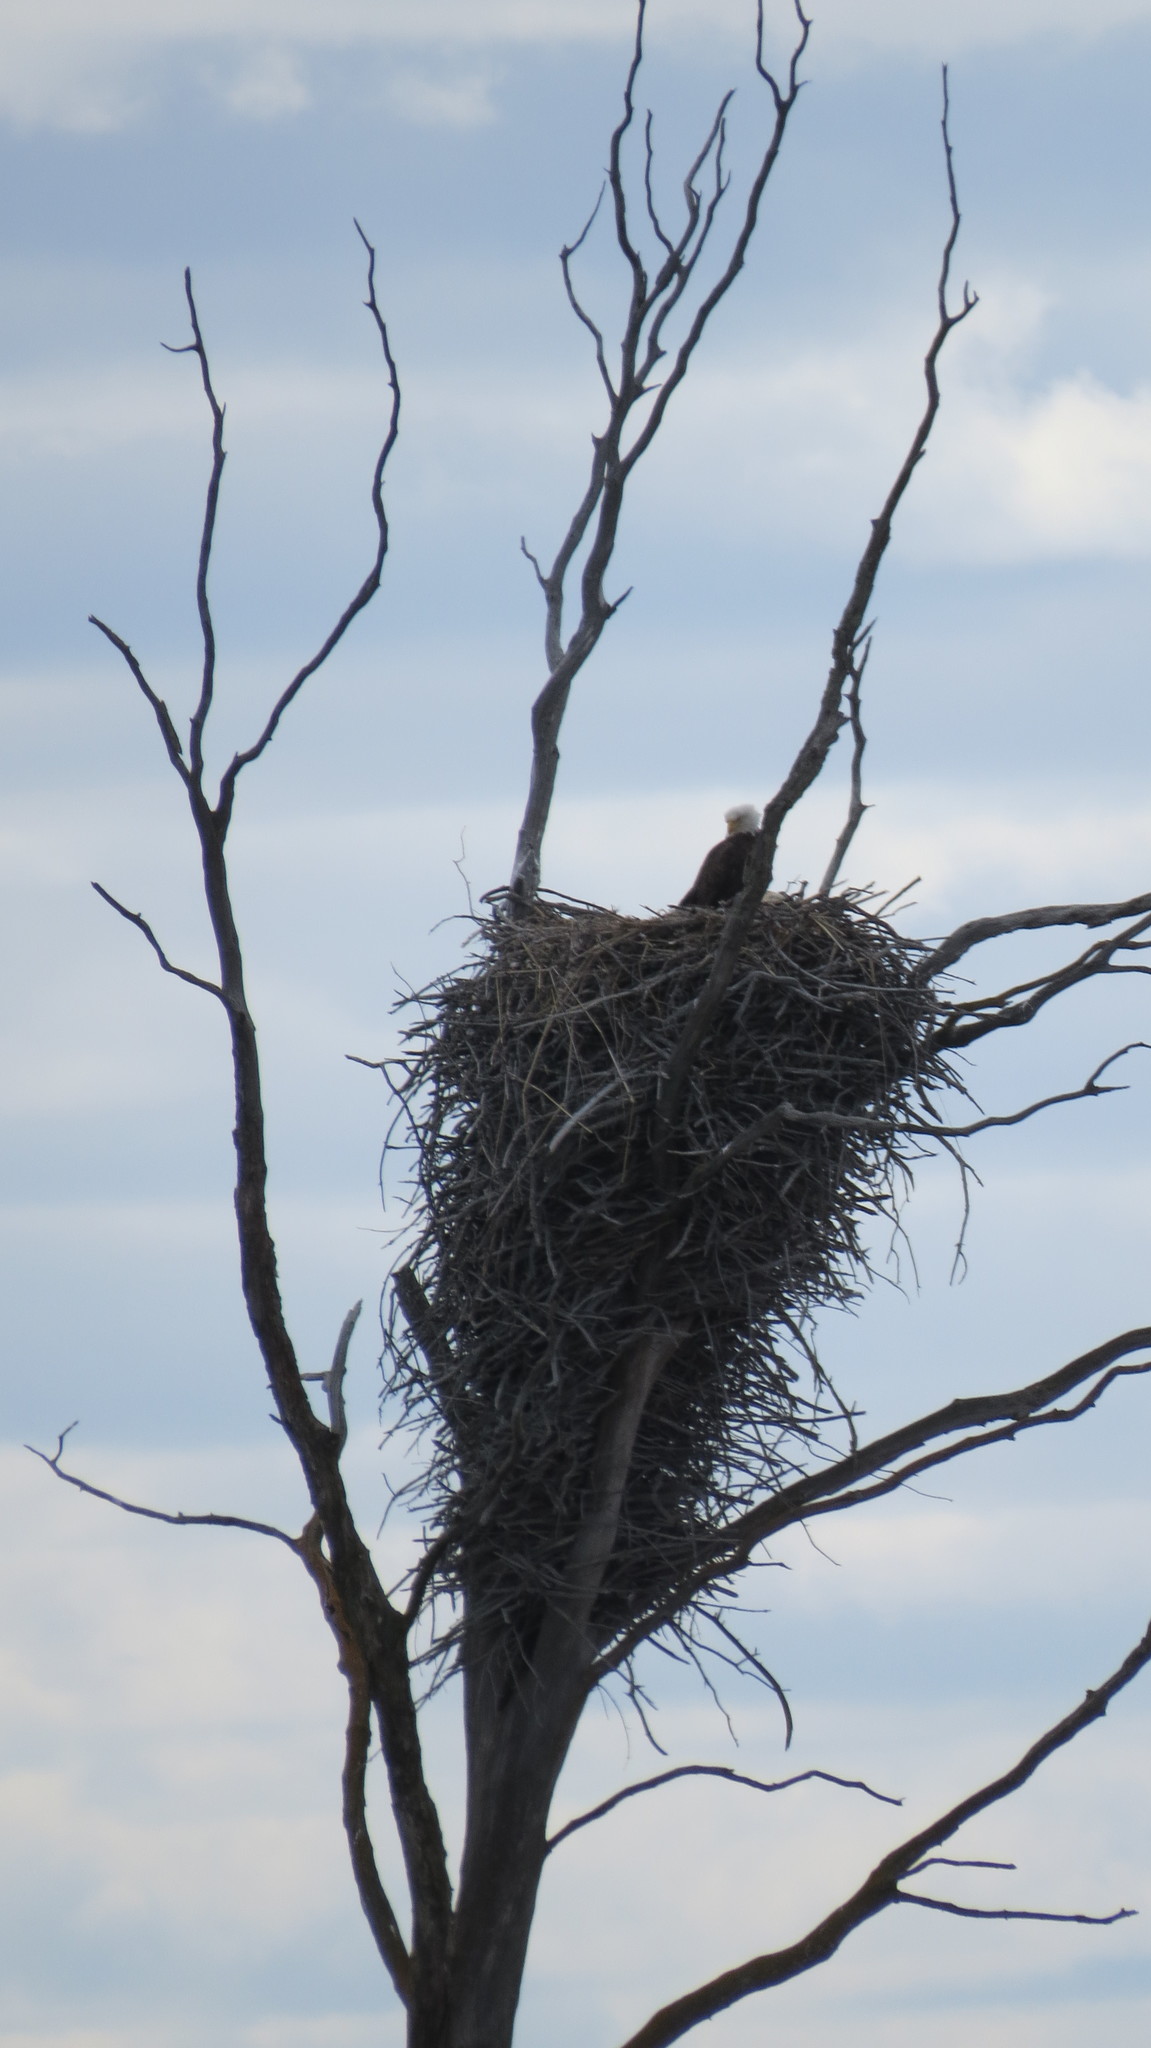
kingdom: Animalia
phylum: Chordata
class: Aves
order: Accipitriformes
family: Accipitridae
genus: Haliaeetus
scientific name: Haliaeetus leucocephalus
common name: Bald eagle
